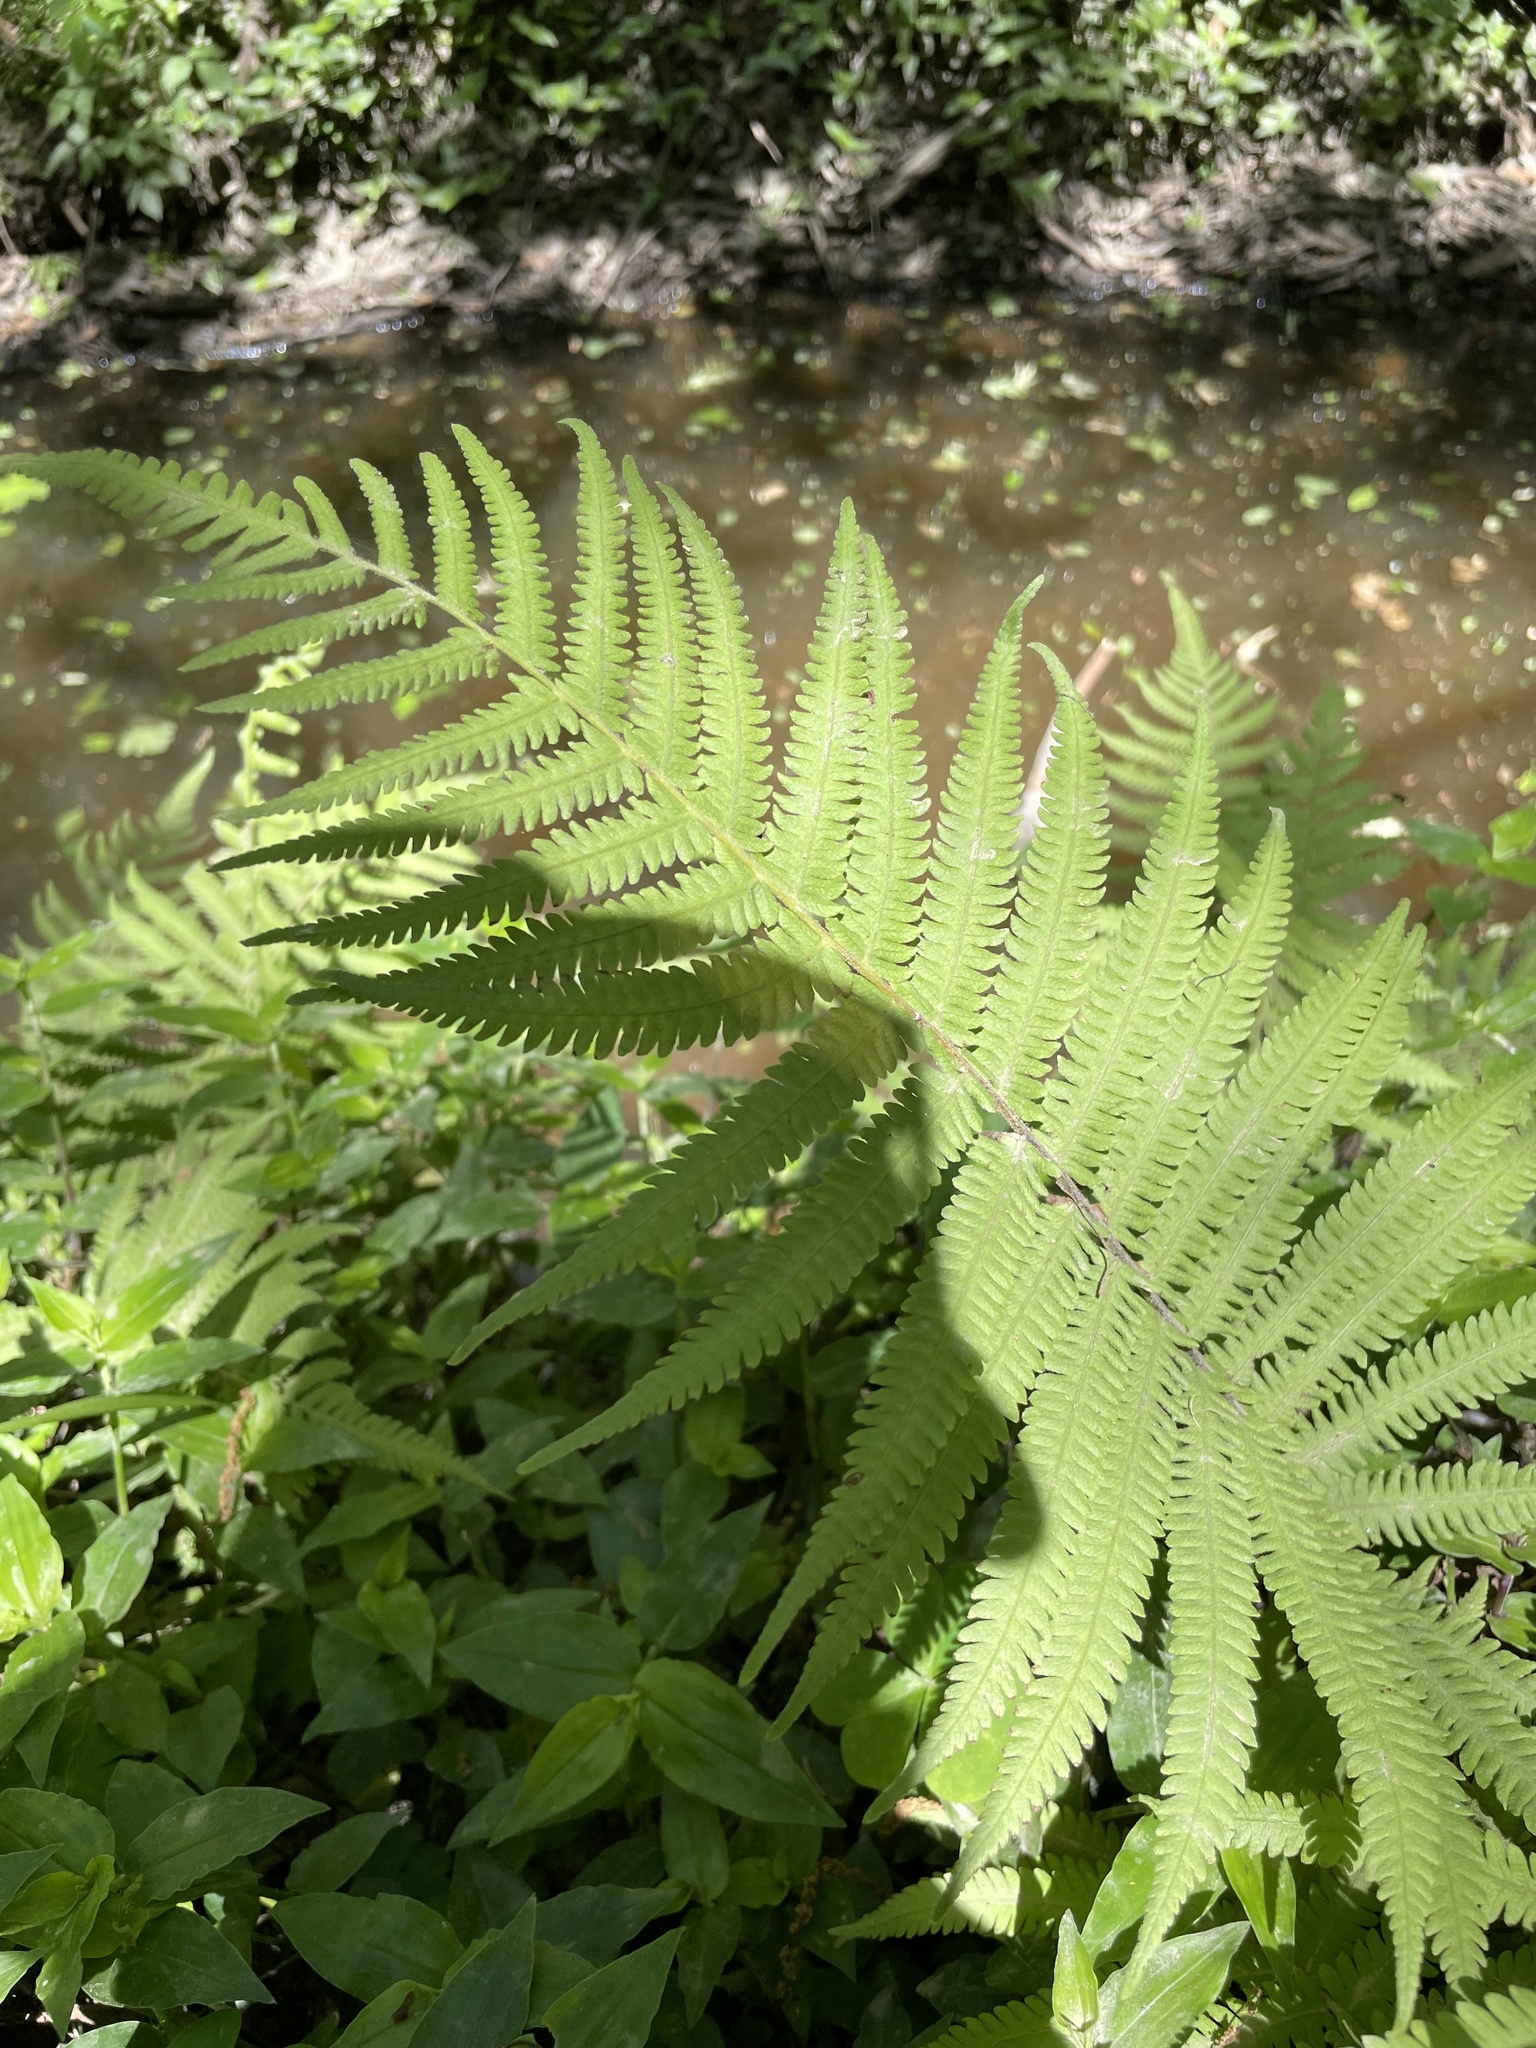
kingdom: Plantae
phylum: Tracheophyta
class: Polypodiopsida
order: Polypodiales
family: Thelypteridaceae
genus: Pelazoneuron
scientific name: Pelazoneuron kunthii
